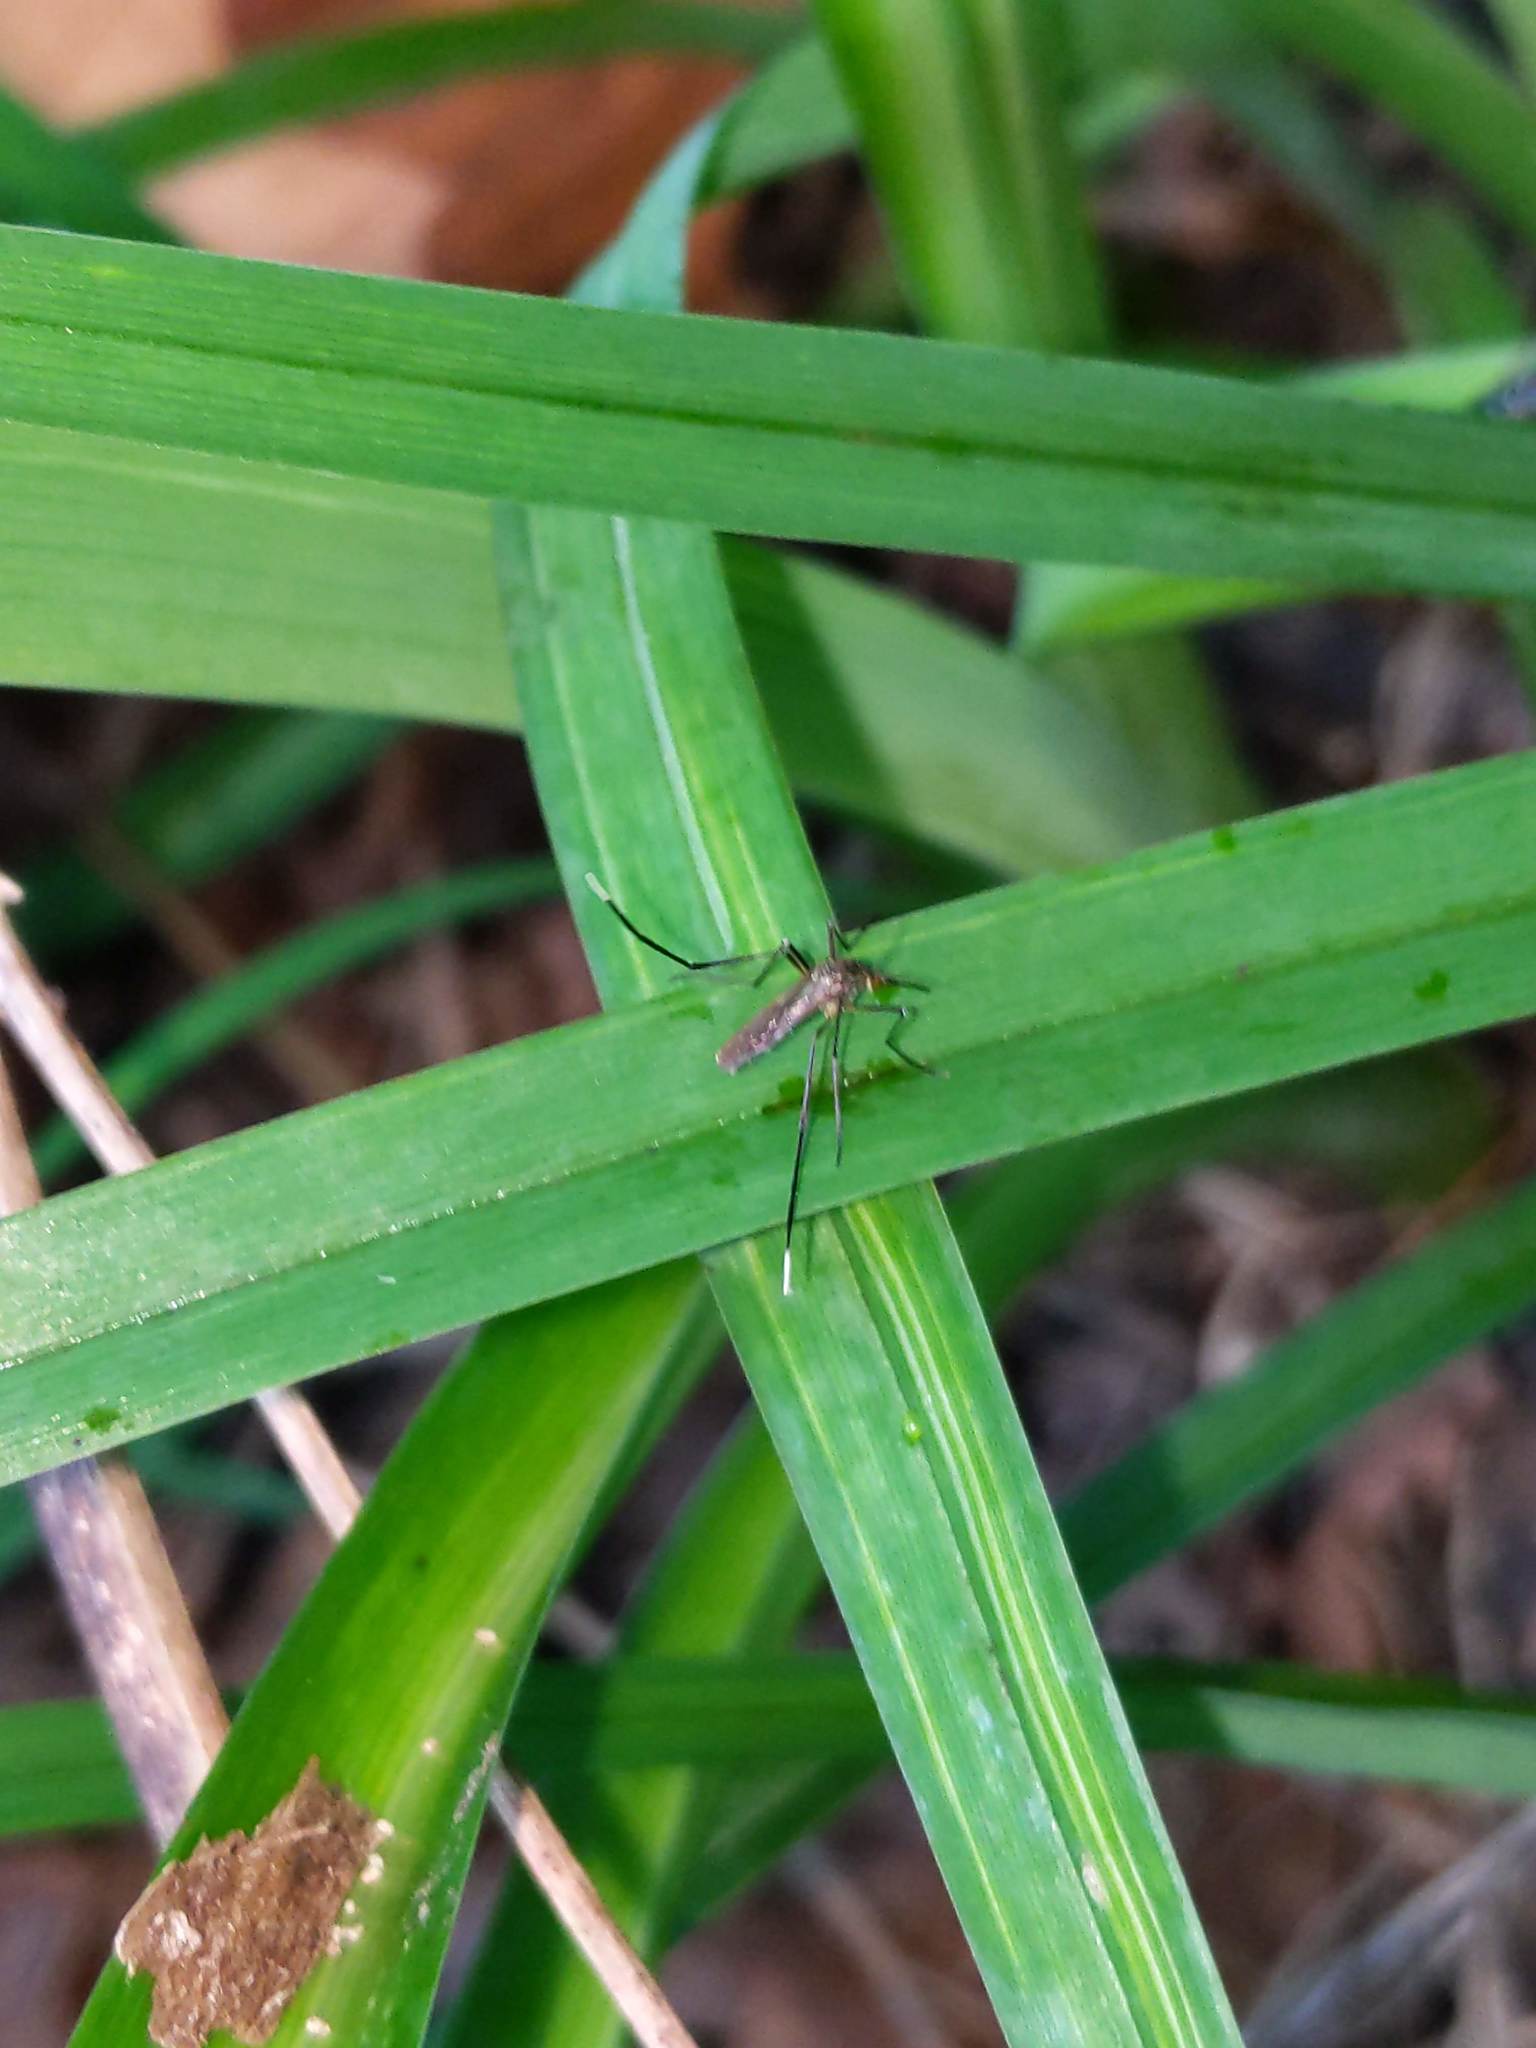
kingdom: Animalia
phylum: Arthropoda
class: Insecta
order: Diptera
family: Culicidae
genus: Psorophora
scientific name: Psorophora ferox
